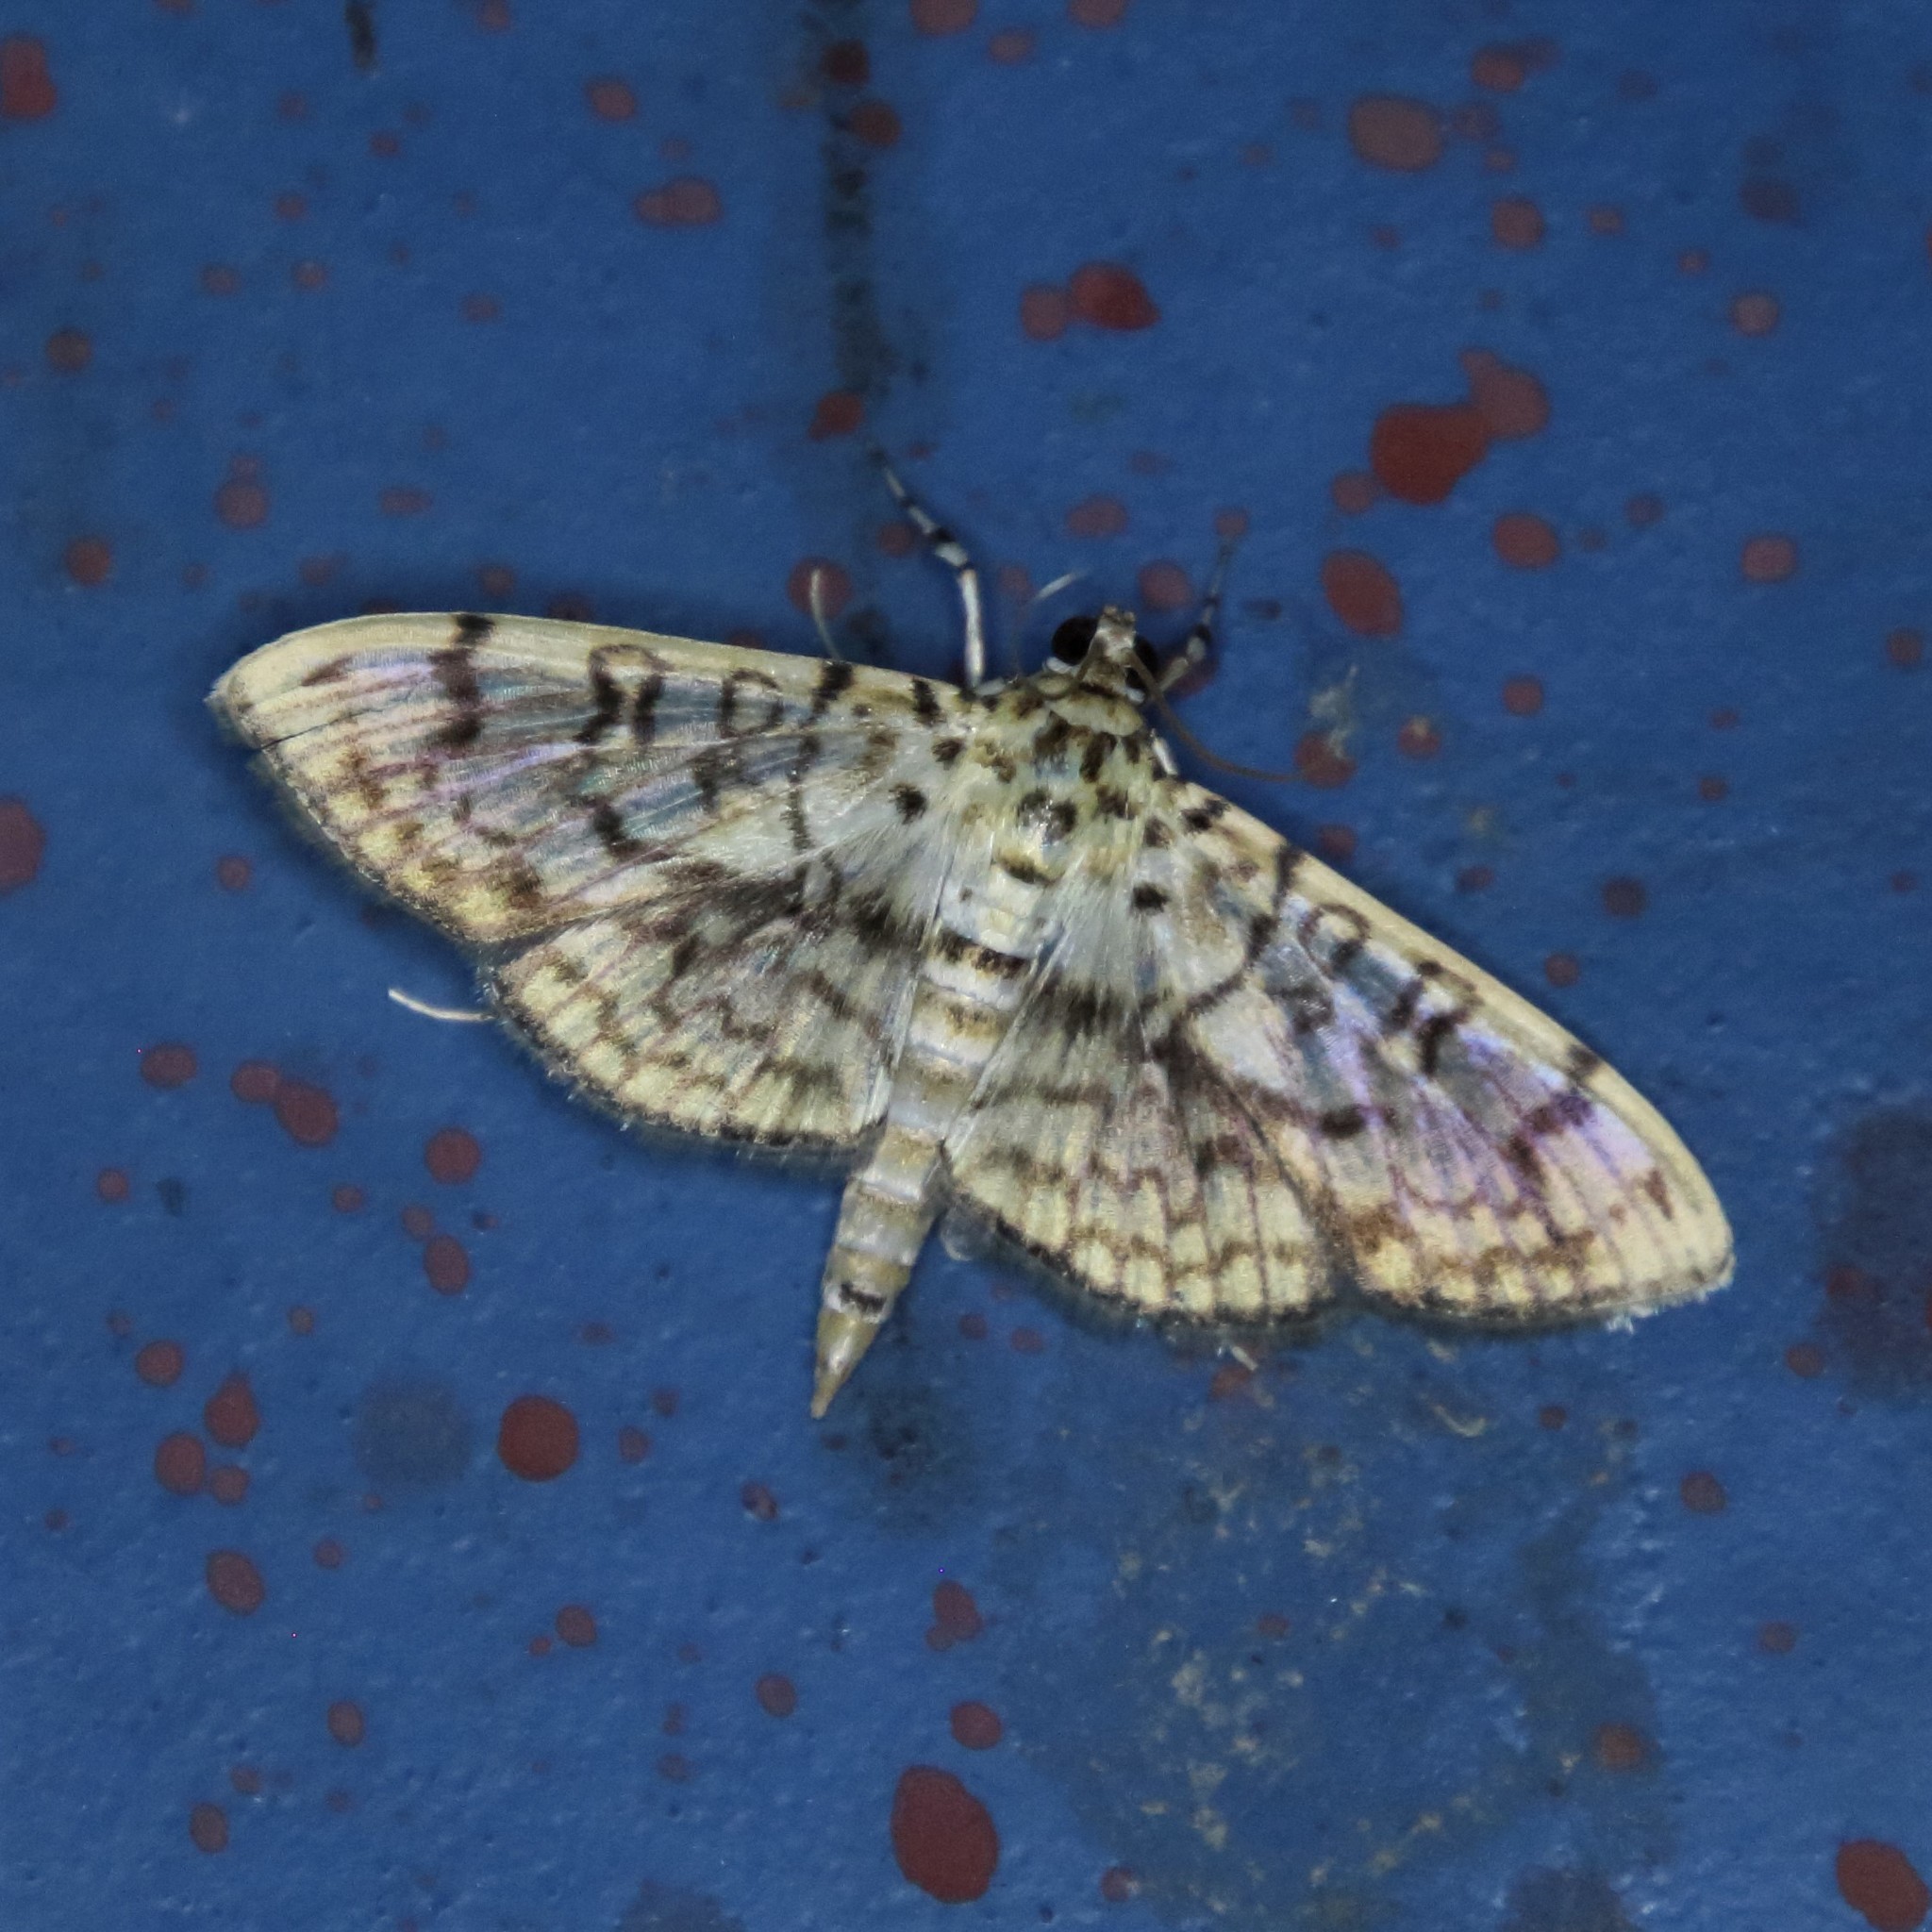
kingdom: Animalia
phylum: Arthropoda
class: Insecta
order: Lepidoptera
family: Crambidae
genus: Haritalodes
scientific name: Haritalodes derogata
